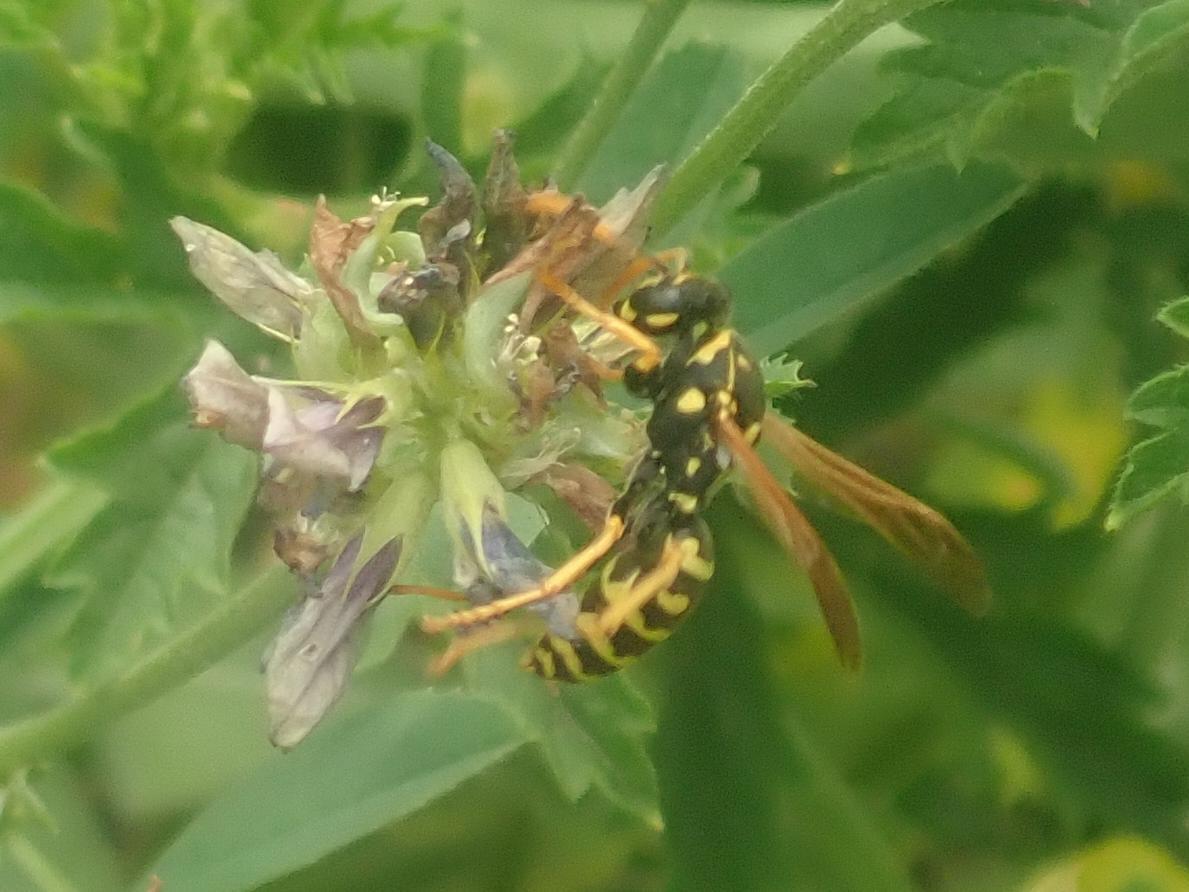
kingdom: Animalia
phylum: Arthropoda
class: Insecta
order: Hymenoptera
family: Eumenidae
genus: Polistes
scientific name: Polistes dominula
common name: Paper wasp
